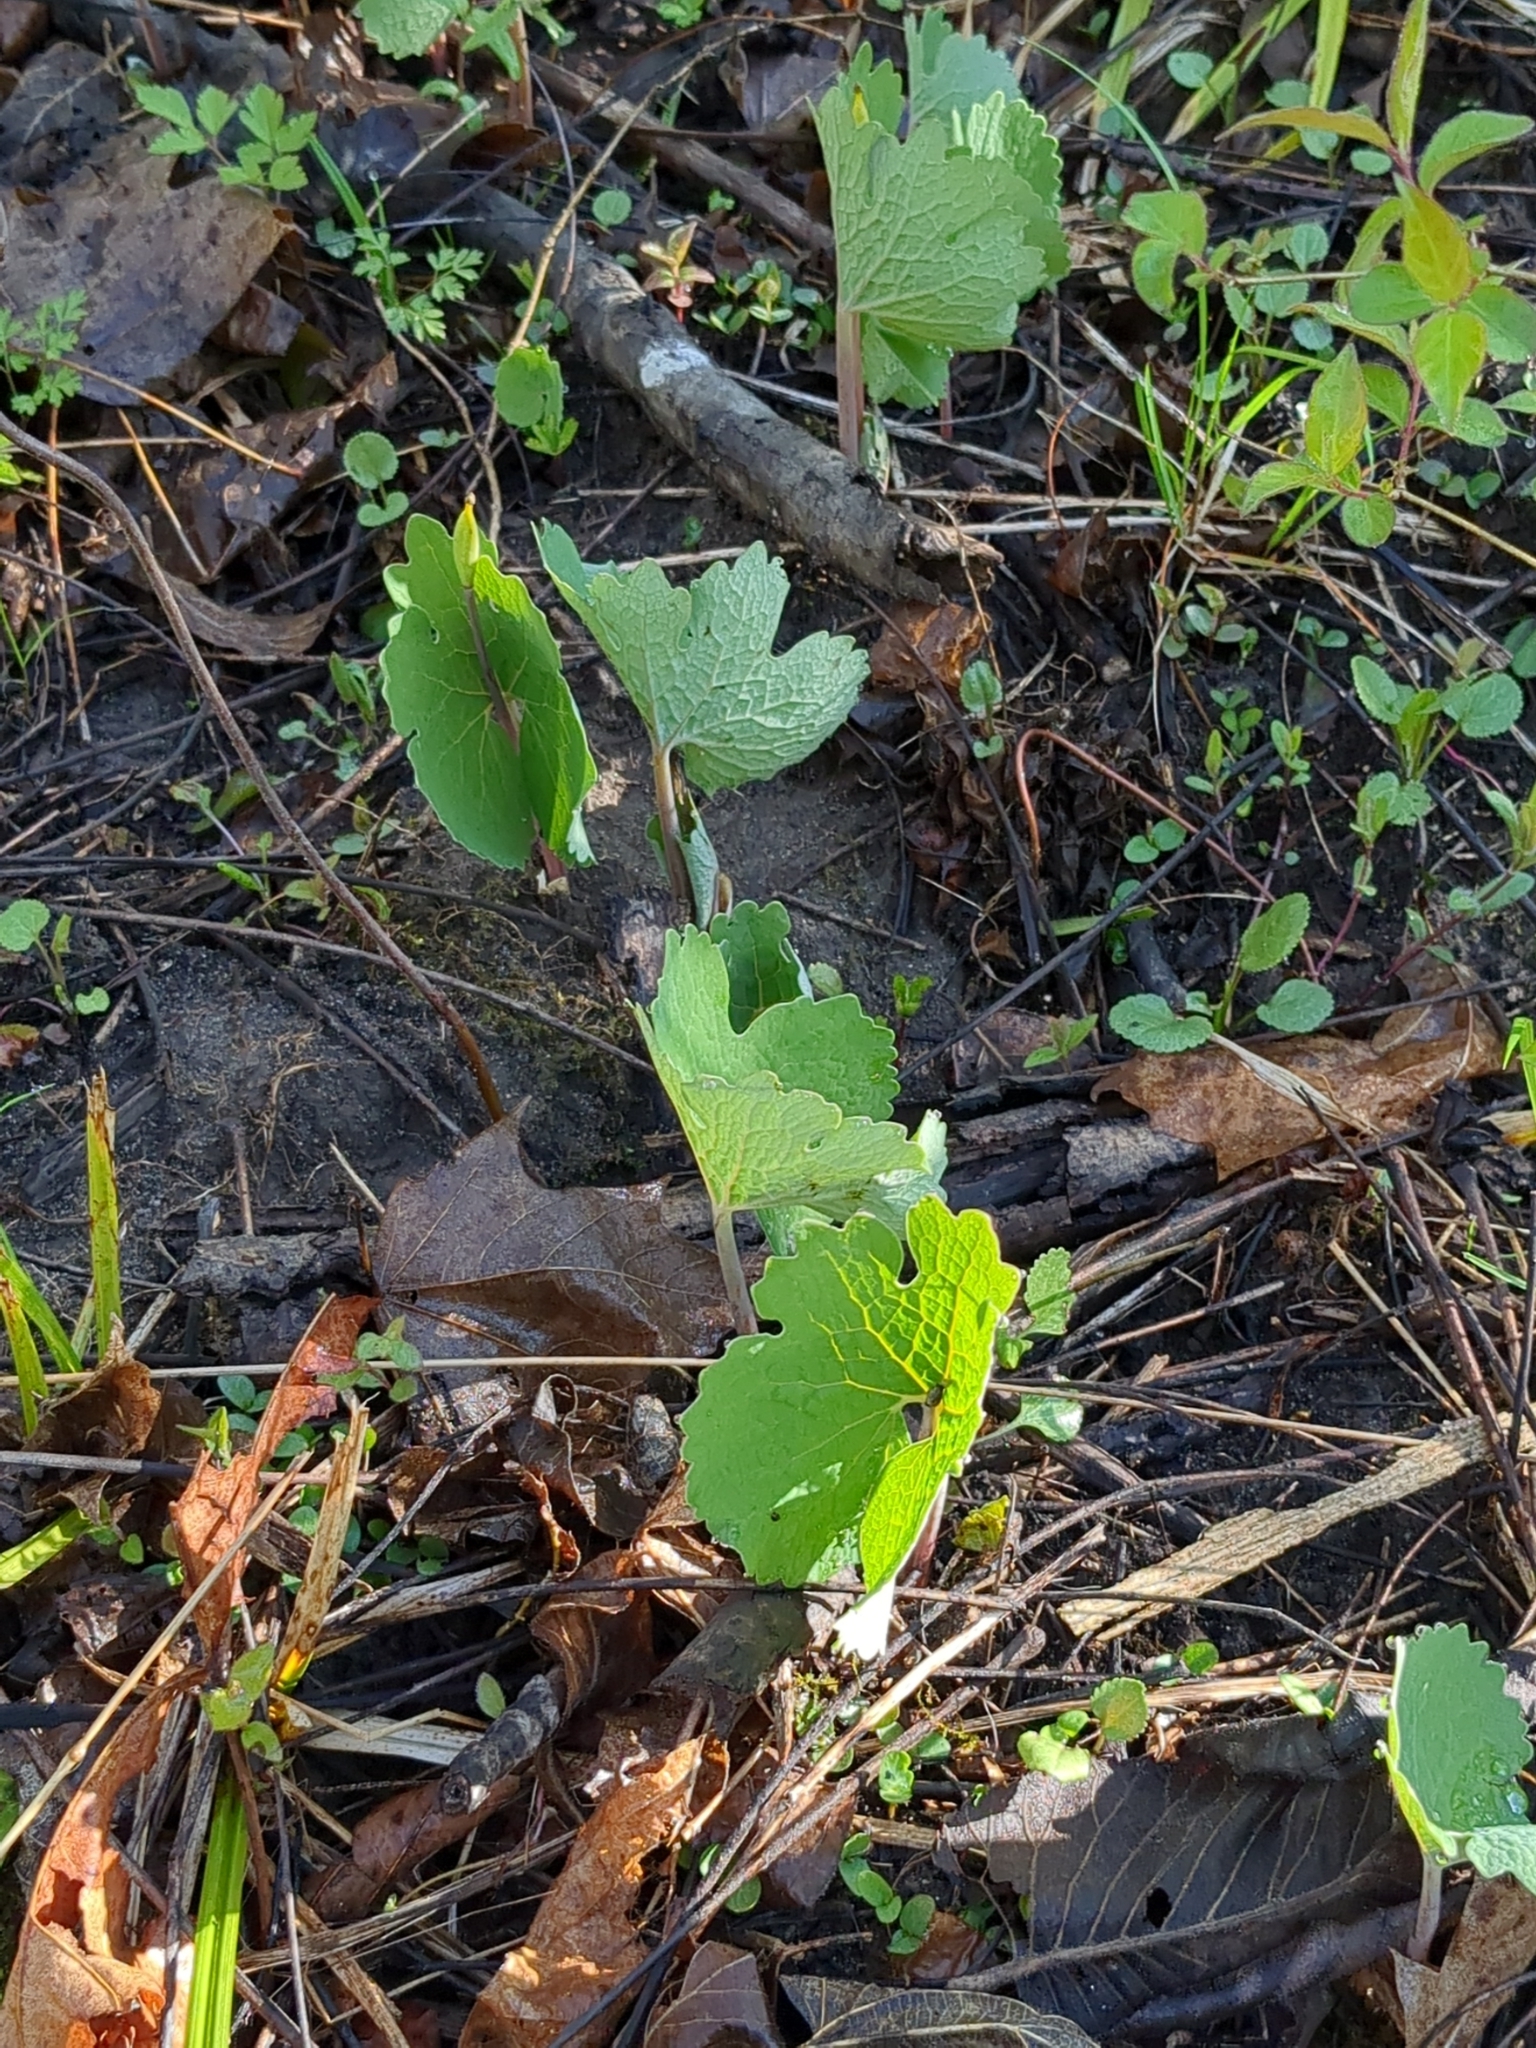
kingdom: Plantae
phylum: Tracheophyta
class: Magnoliopsida
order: Ranunculales
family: Papaveraceae
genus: Sanguinaria
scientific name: Sanguinaria canadensis
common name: Bloodroot
